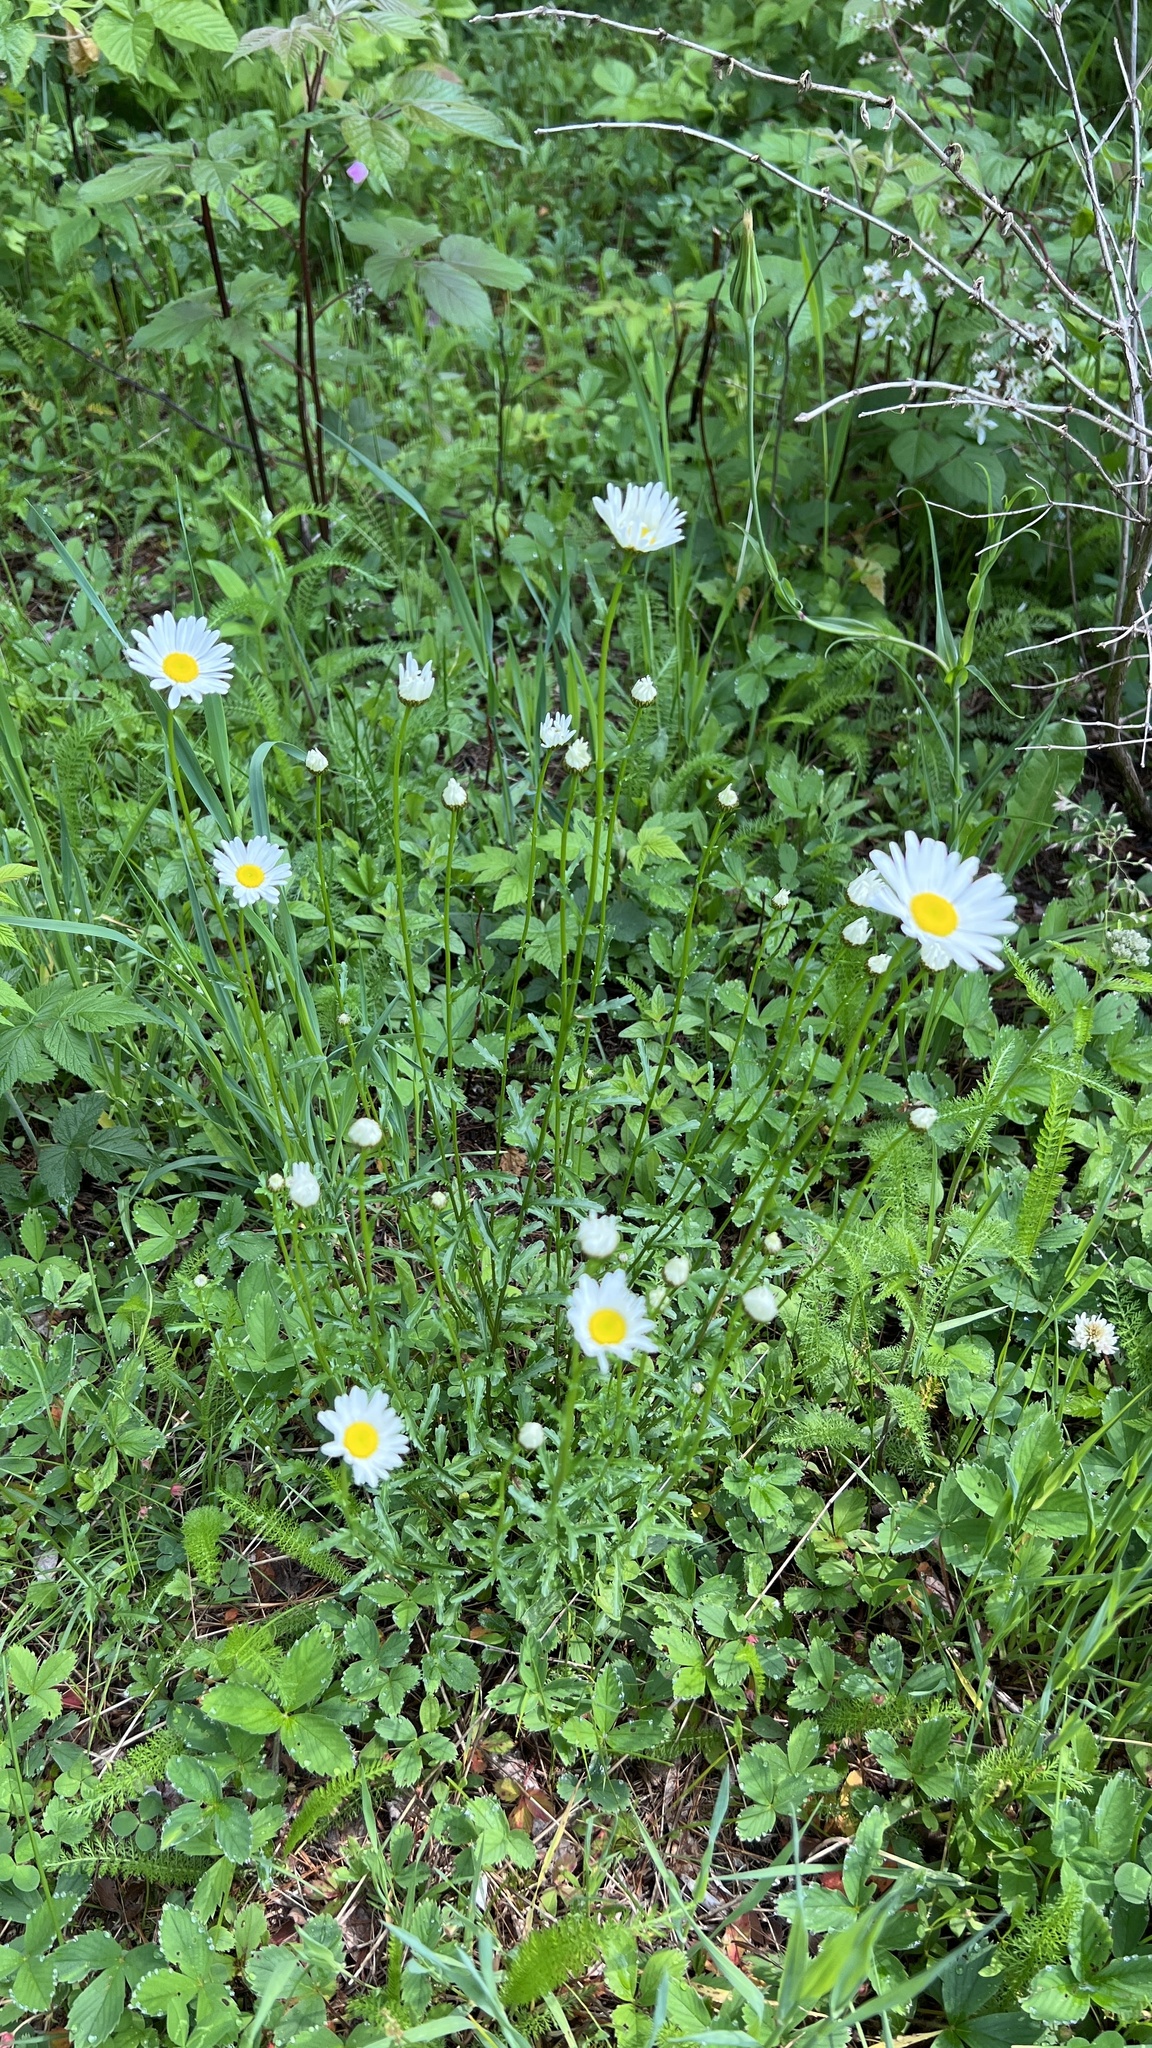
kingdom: Plantae
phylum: Tracheophyta
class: Magnoliopsida
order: Asterales
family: Asteraceae
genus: Leucanthemum
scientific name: Leucanthemum vulgare
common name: Oxeye daisy
